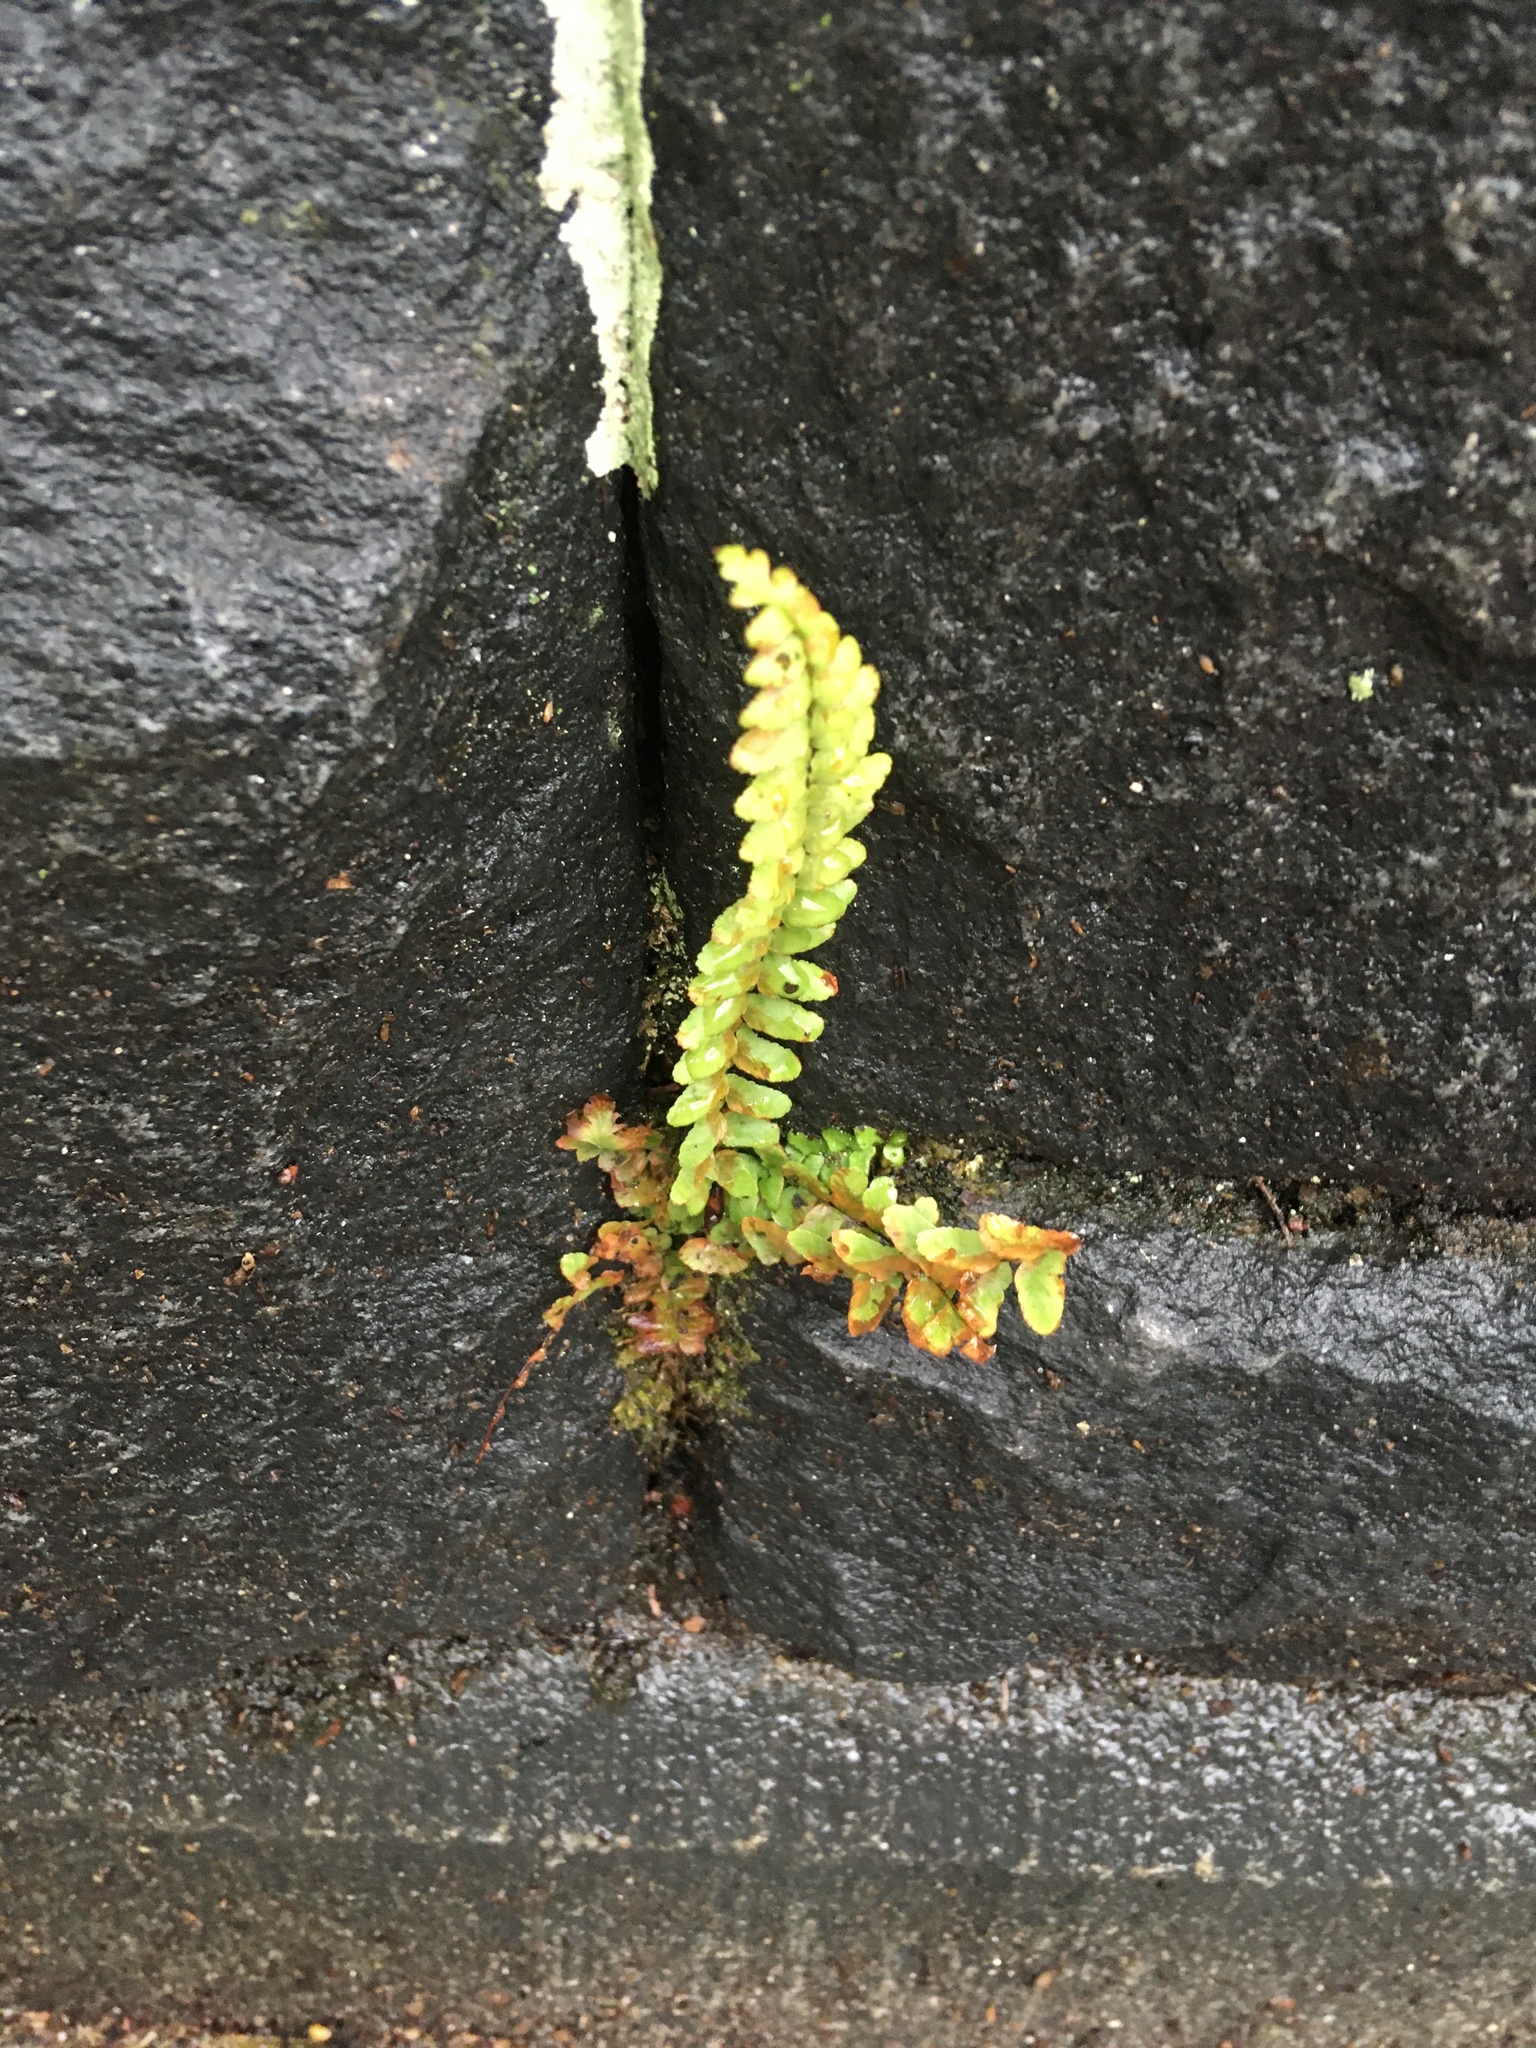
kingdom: Plantae
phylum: Tracheophyta
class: Polypodiopsida
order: Polypodiales
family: Aspleniaceae
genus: Asplenium
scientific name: Asplenium platyneuron
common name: Ebony spleenwort
